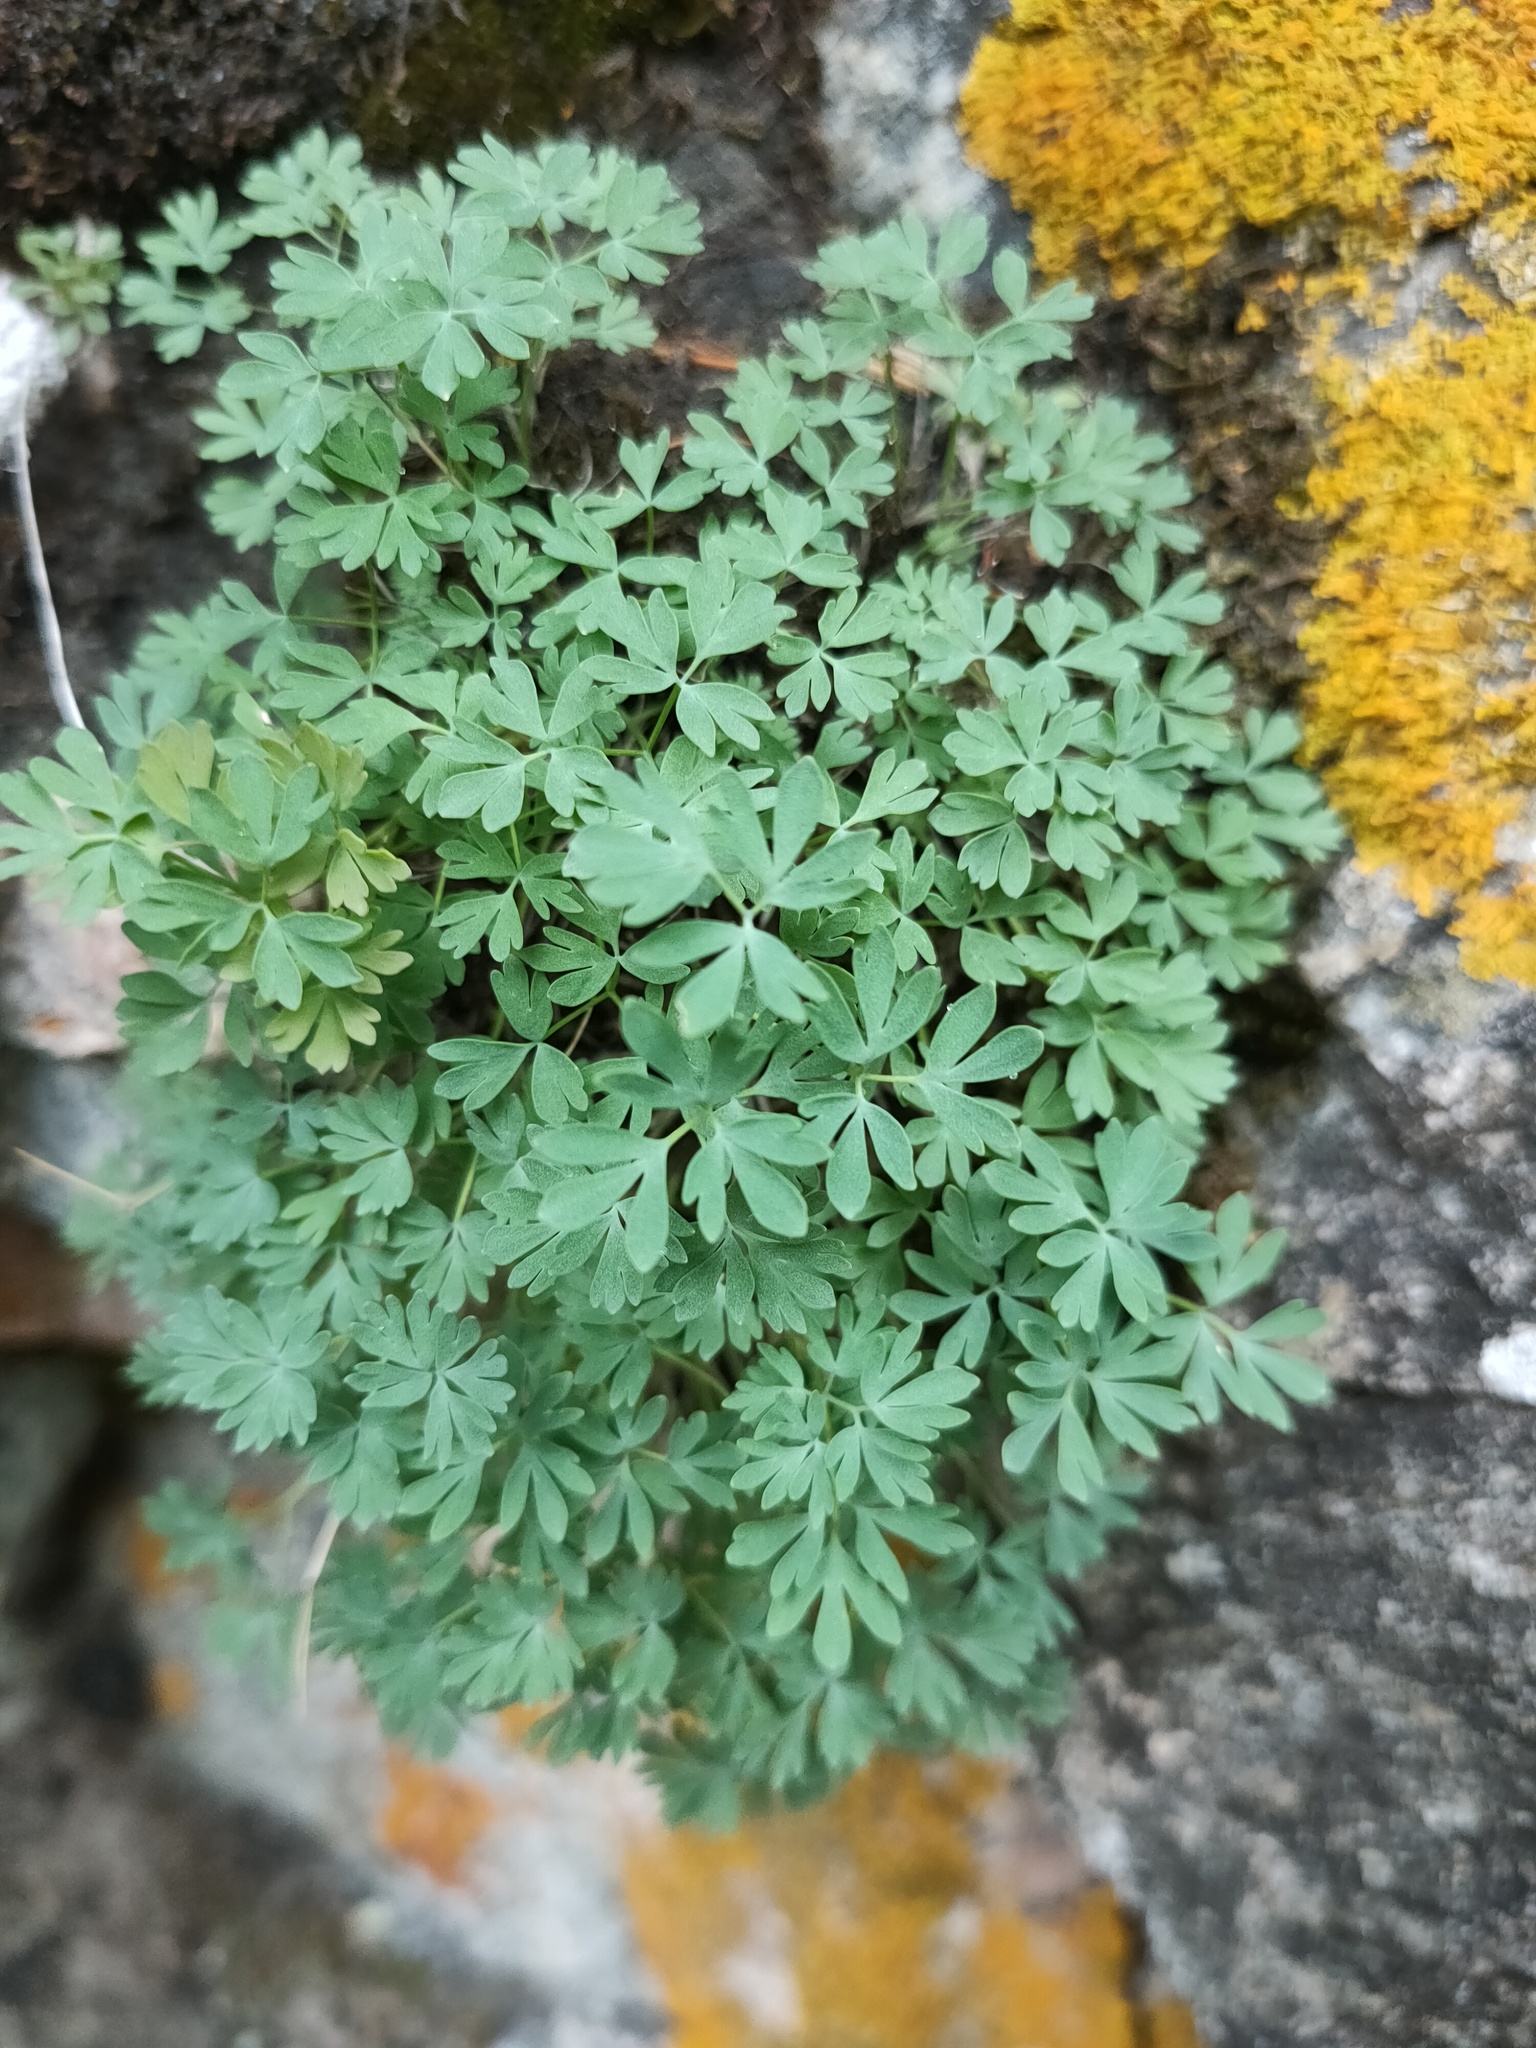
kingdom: Plantae
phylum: Tracheophyta
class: Magnoliopsida
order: Ranunculales
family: Ranunculaceae
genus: Paraquilegia
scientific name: Paraquilegia microphylla
